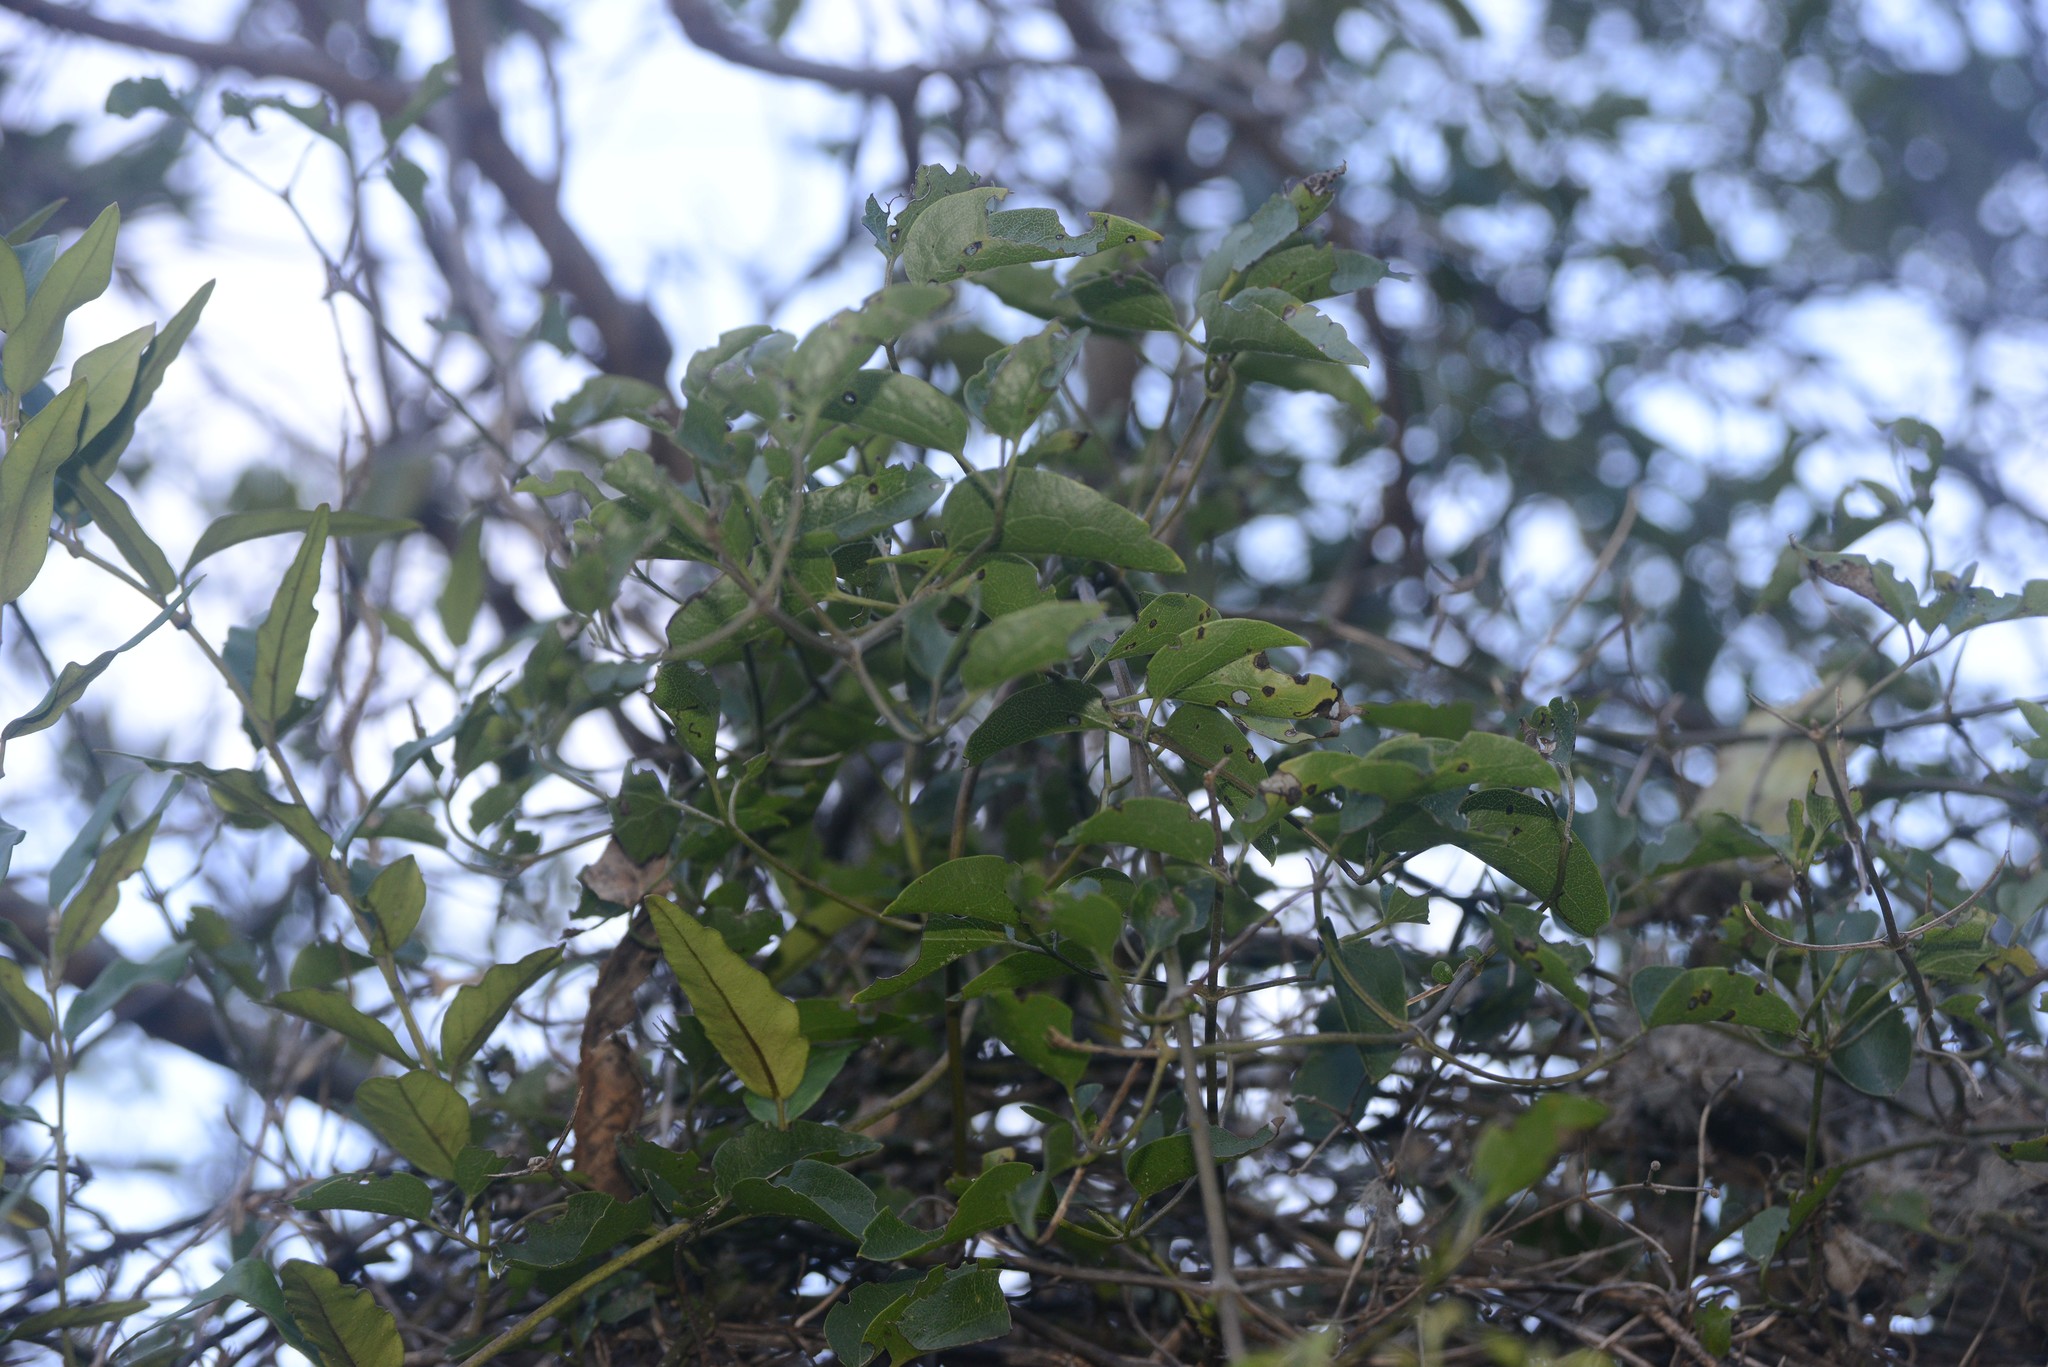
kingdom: Plantae
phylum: Tracheophyta
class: Magnoliopsida
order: Ranunculales
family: Ranunculaceae
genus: Clematis
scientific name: Clematis foetida
